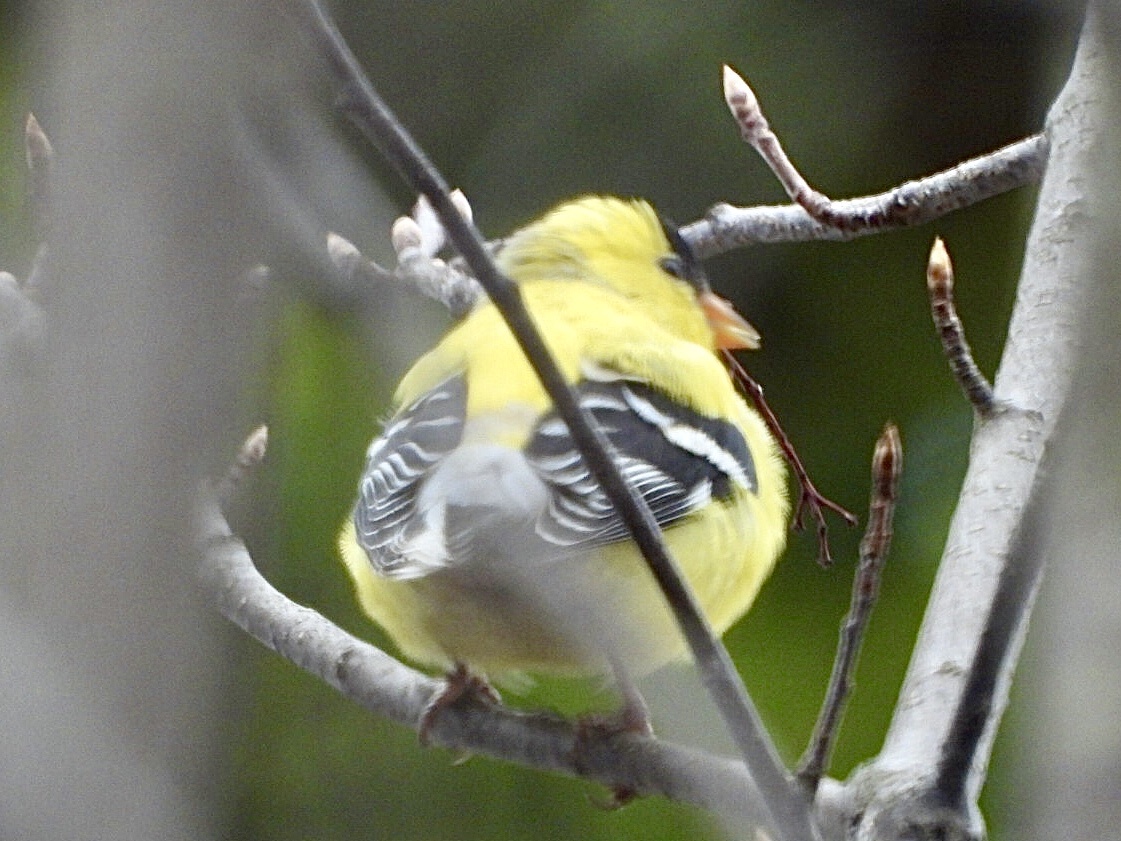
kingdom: Animalia
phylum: Chordata
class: Aves
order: Passeriformes
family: Fringillidae
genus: Spinus
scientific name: Spinus tristis
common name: American goldfinch
